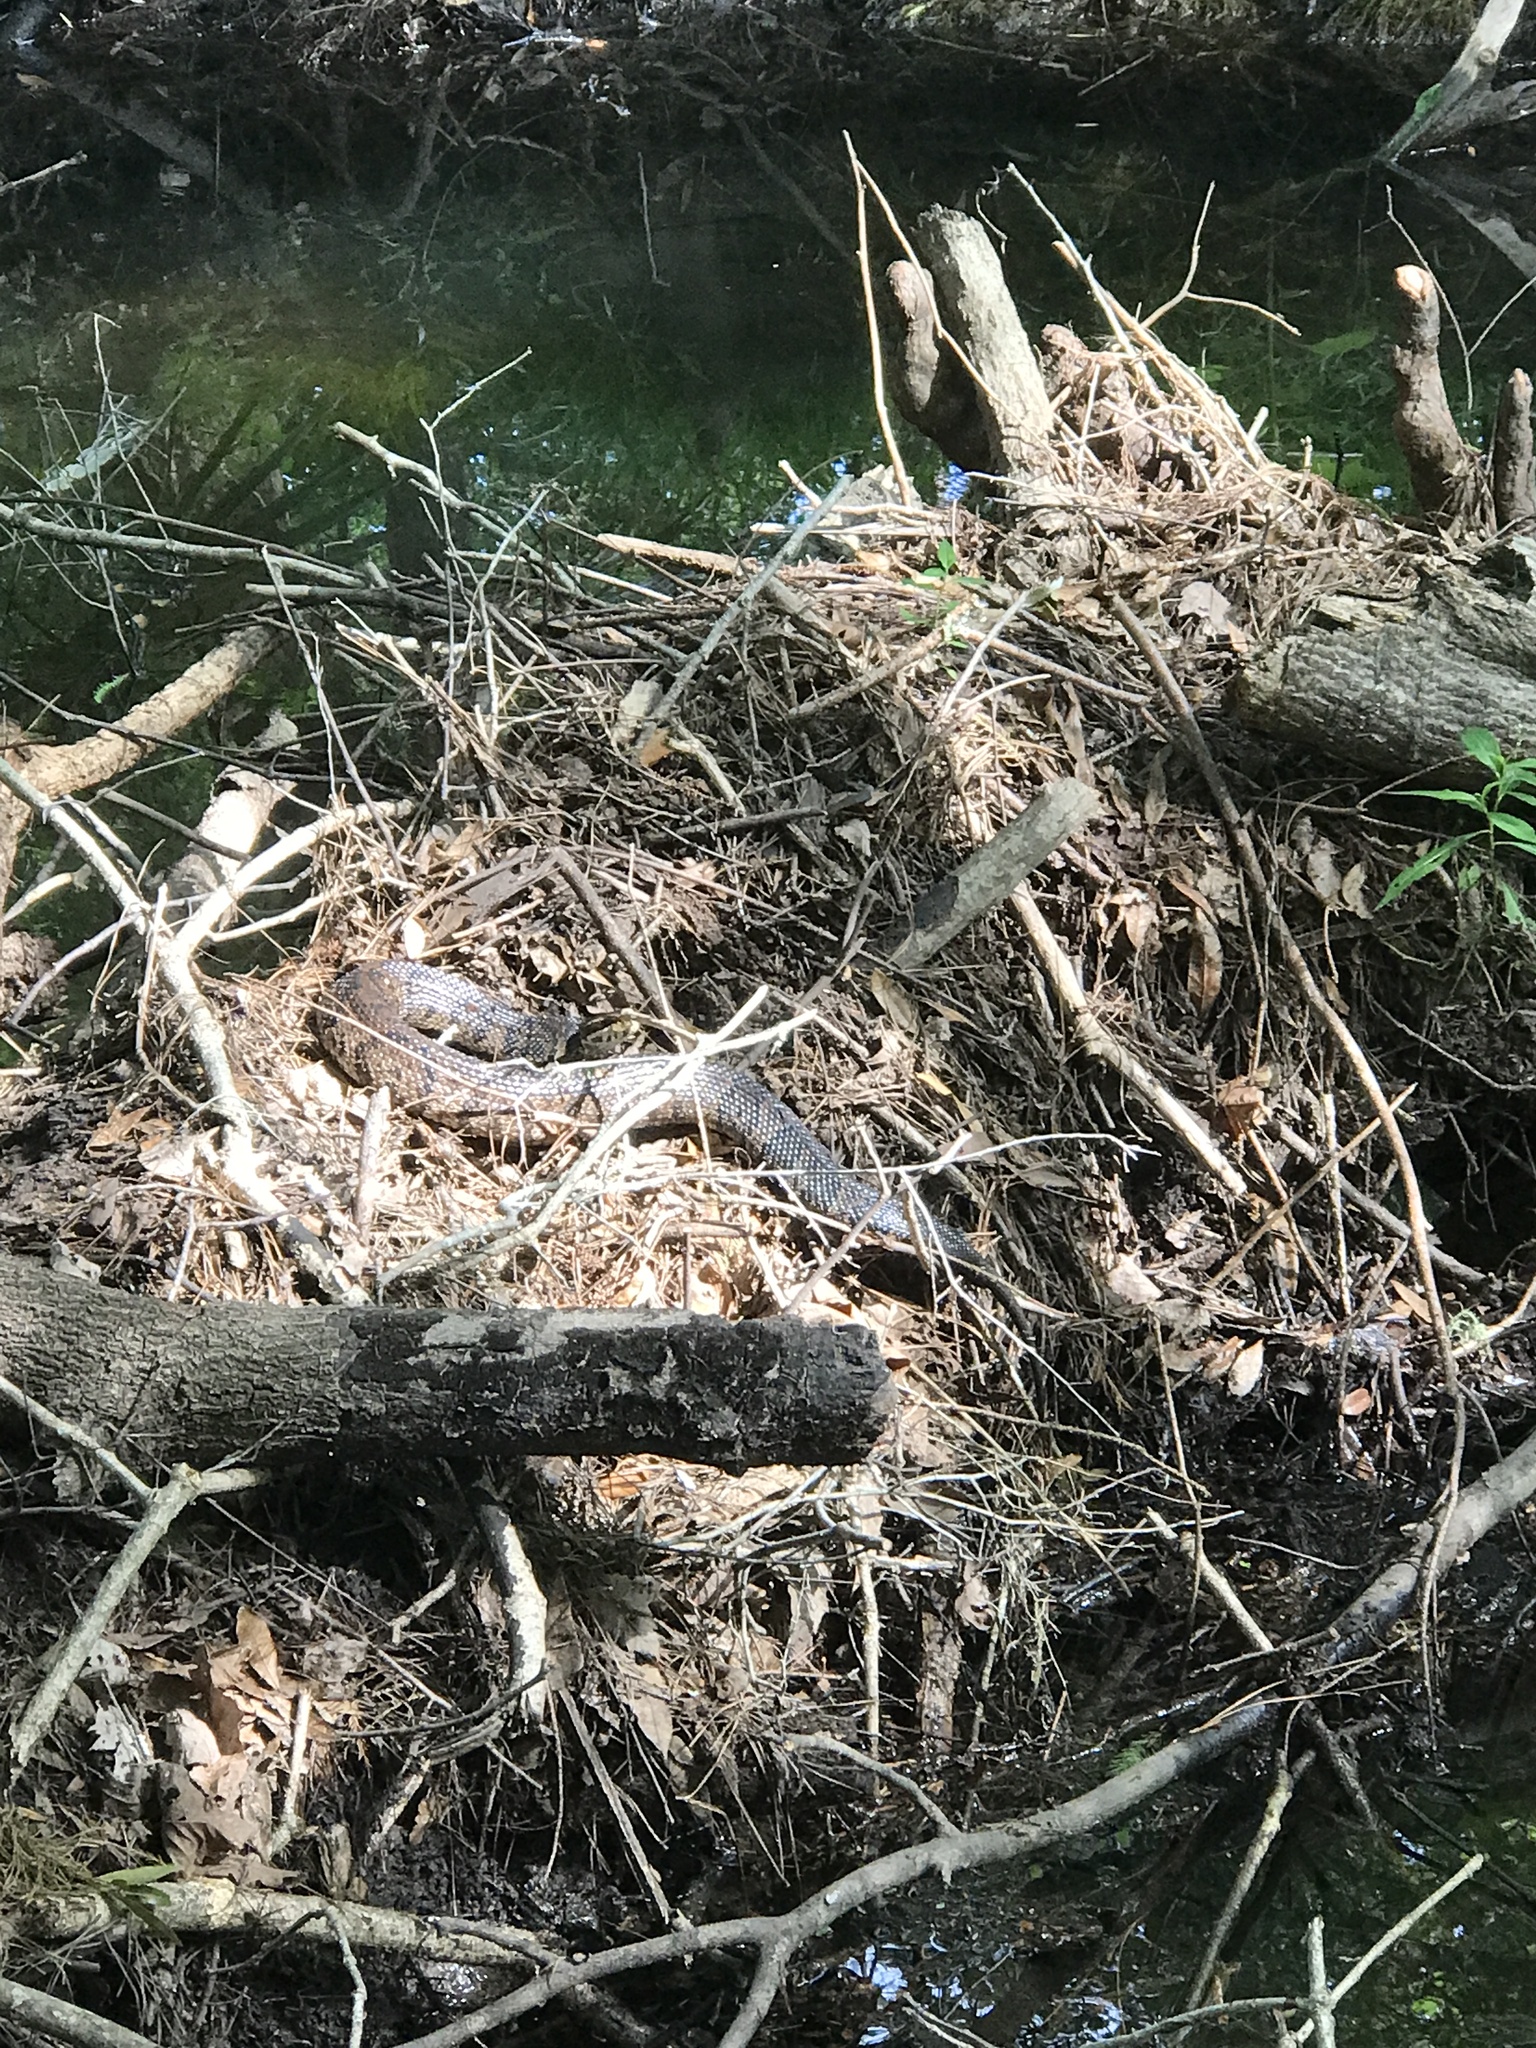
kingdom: Animalia
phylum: Chordata
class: Squamata
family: Viperidae
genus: Agkistrodon
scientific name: Agkistrodon conanti
